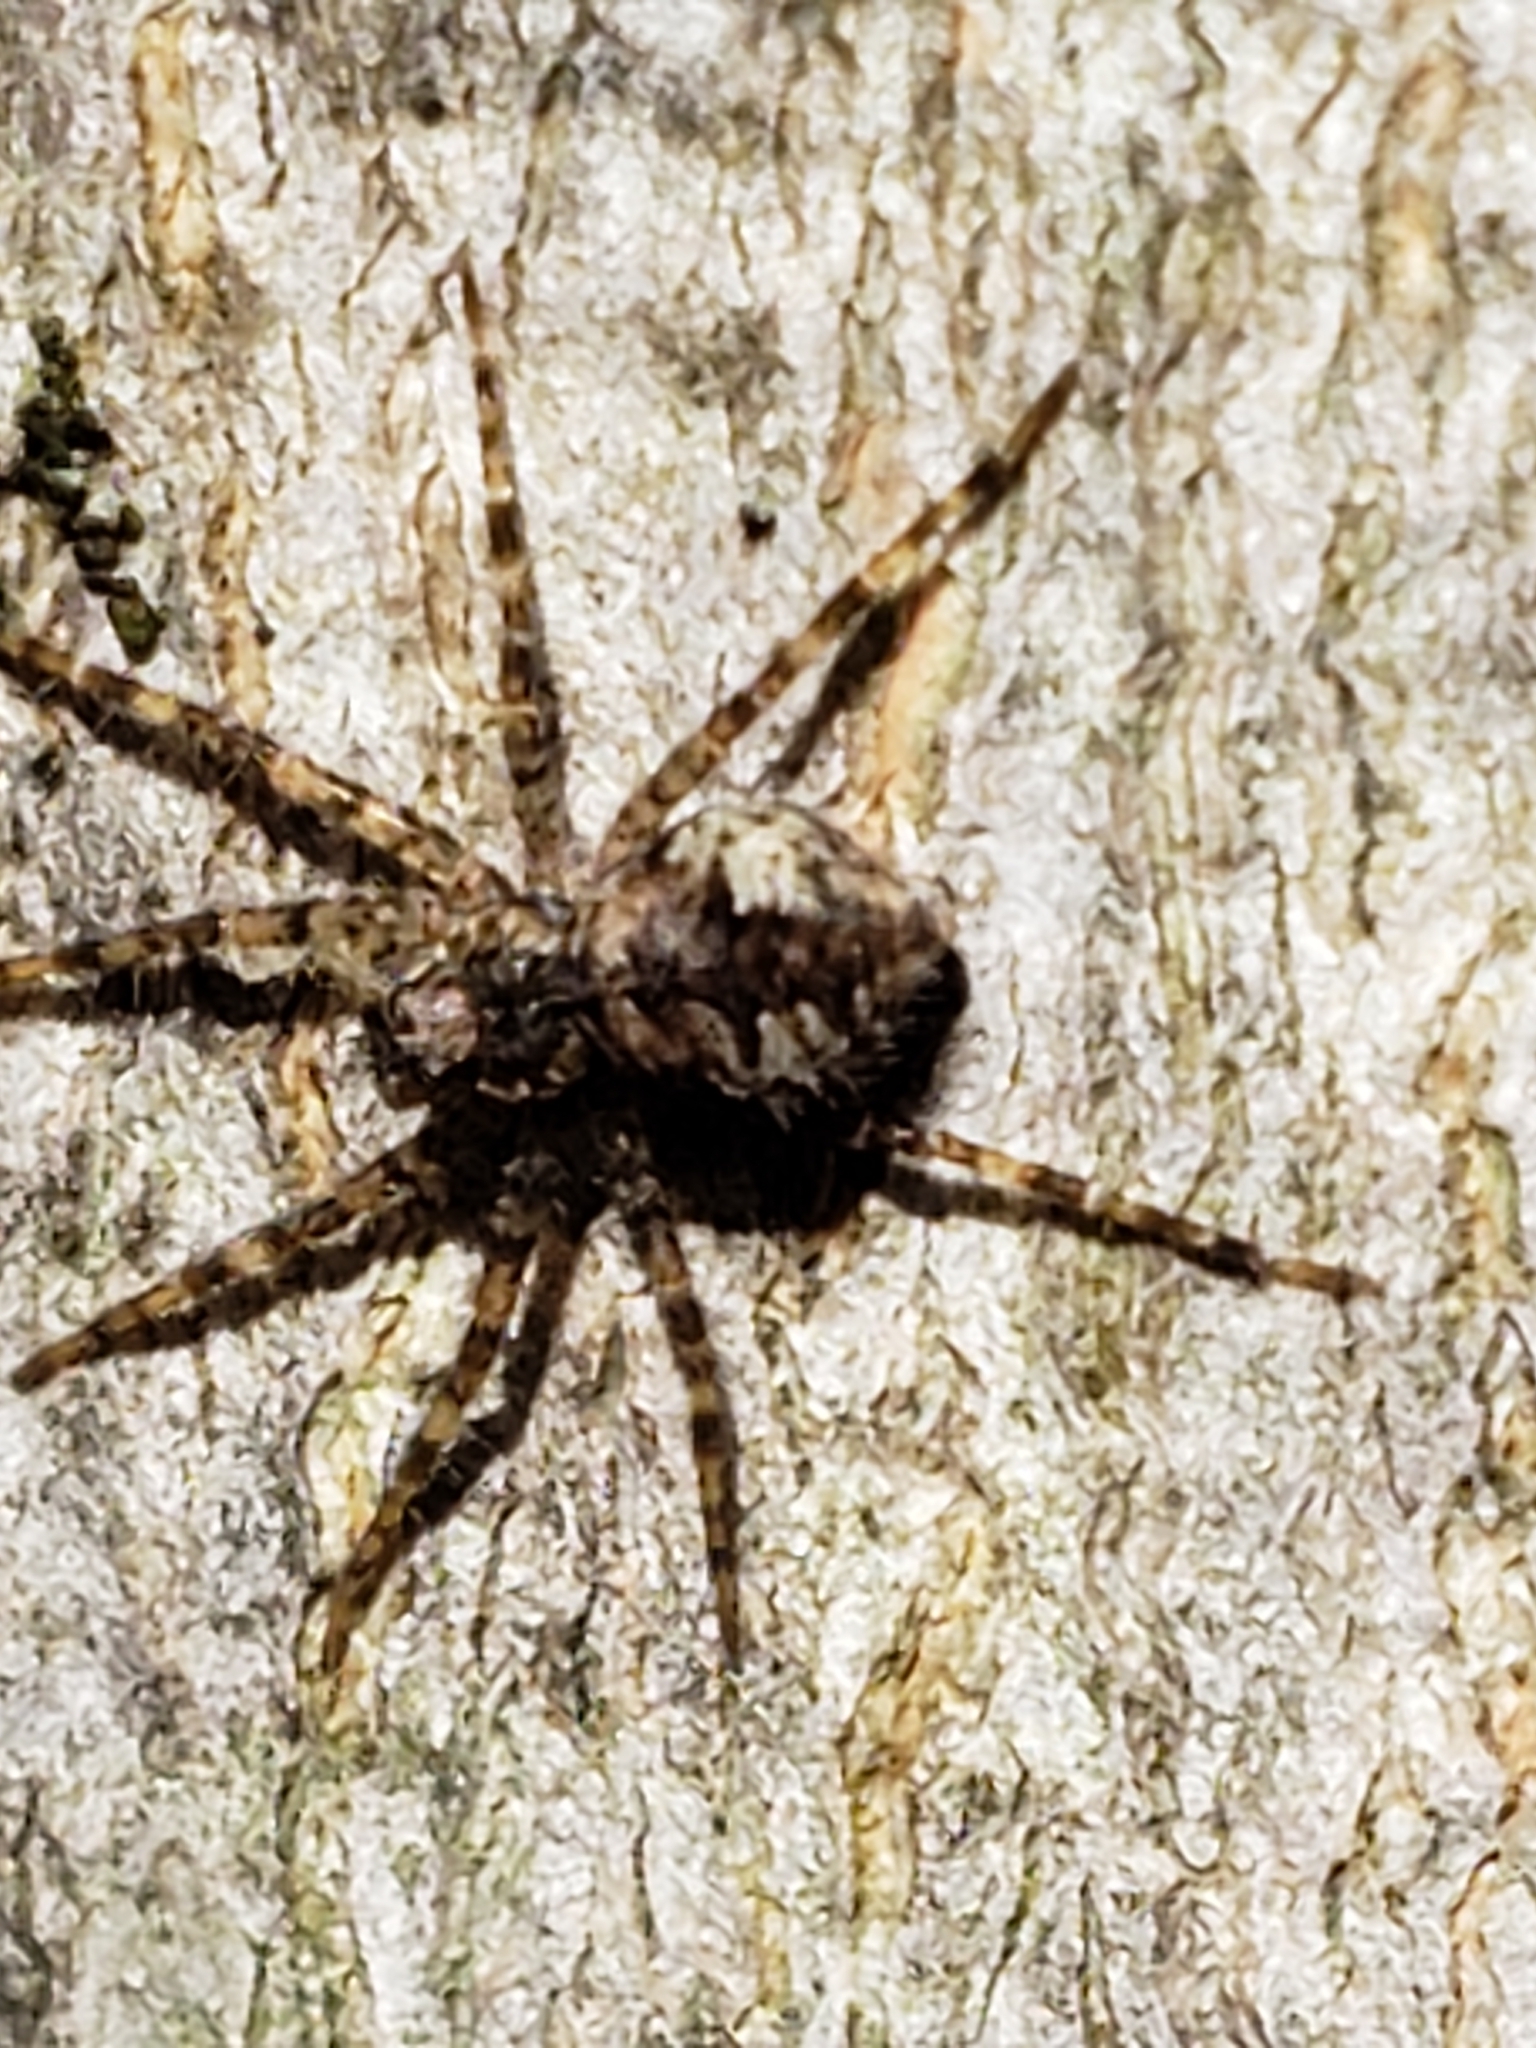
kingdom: Animalia
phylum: Arthropoda
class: Arachnida
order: Araneae
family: Pisauridae
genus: Dolomedes
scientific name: Dolomedes albineus
